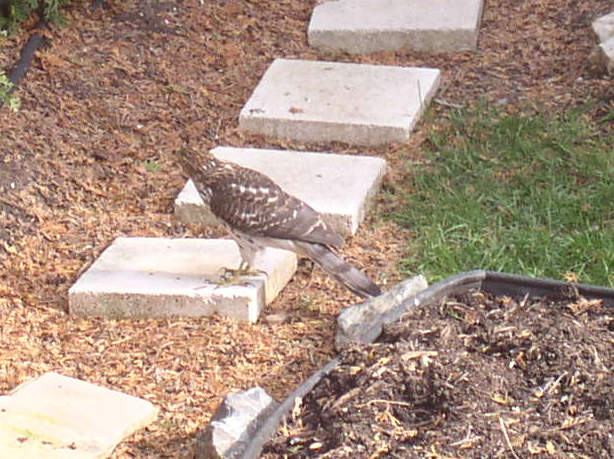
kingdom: Animalia
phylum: Chordata
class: Aves
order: Accipitriformes
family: Accipitridae
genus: Accipiter
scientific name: Accipiter cooperii
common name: Cooper's hawk
